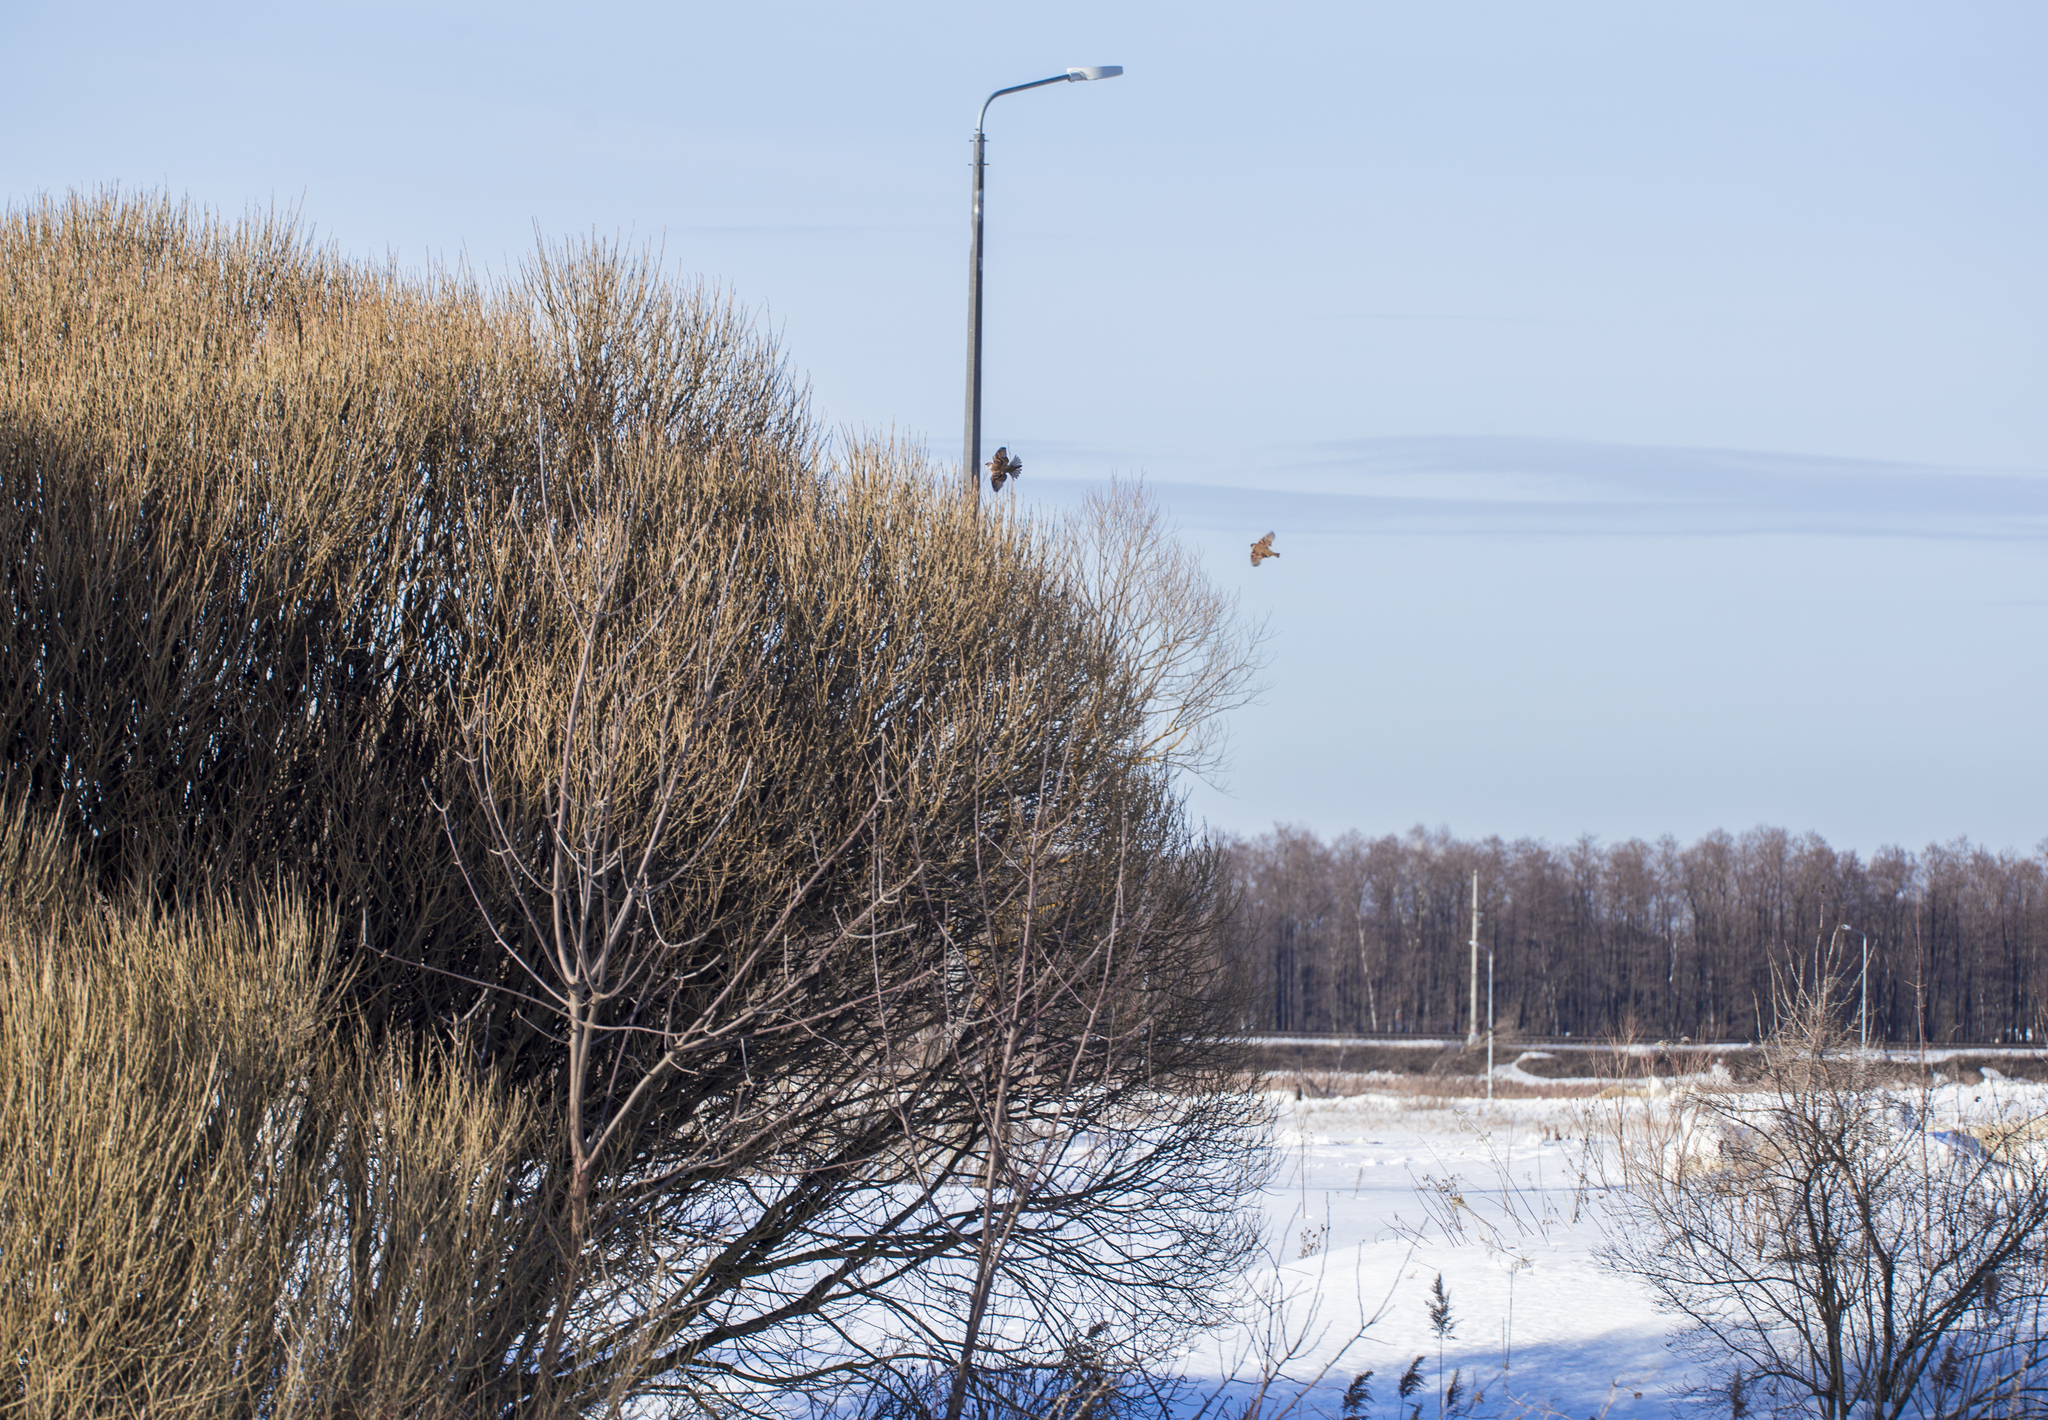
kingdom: Animalia
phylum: Chordata
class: Aves
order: Passeriformes
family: Passeridae
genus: Passer
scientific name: Passer montanus
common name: Eurasian tree sparrow
